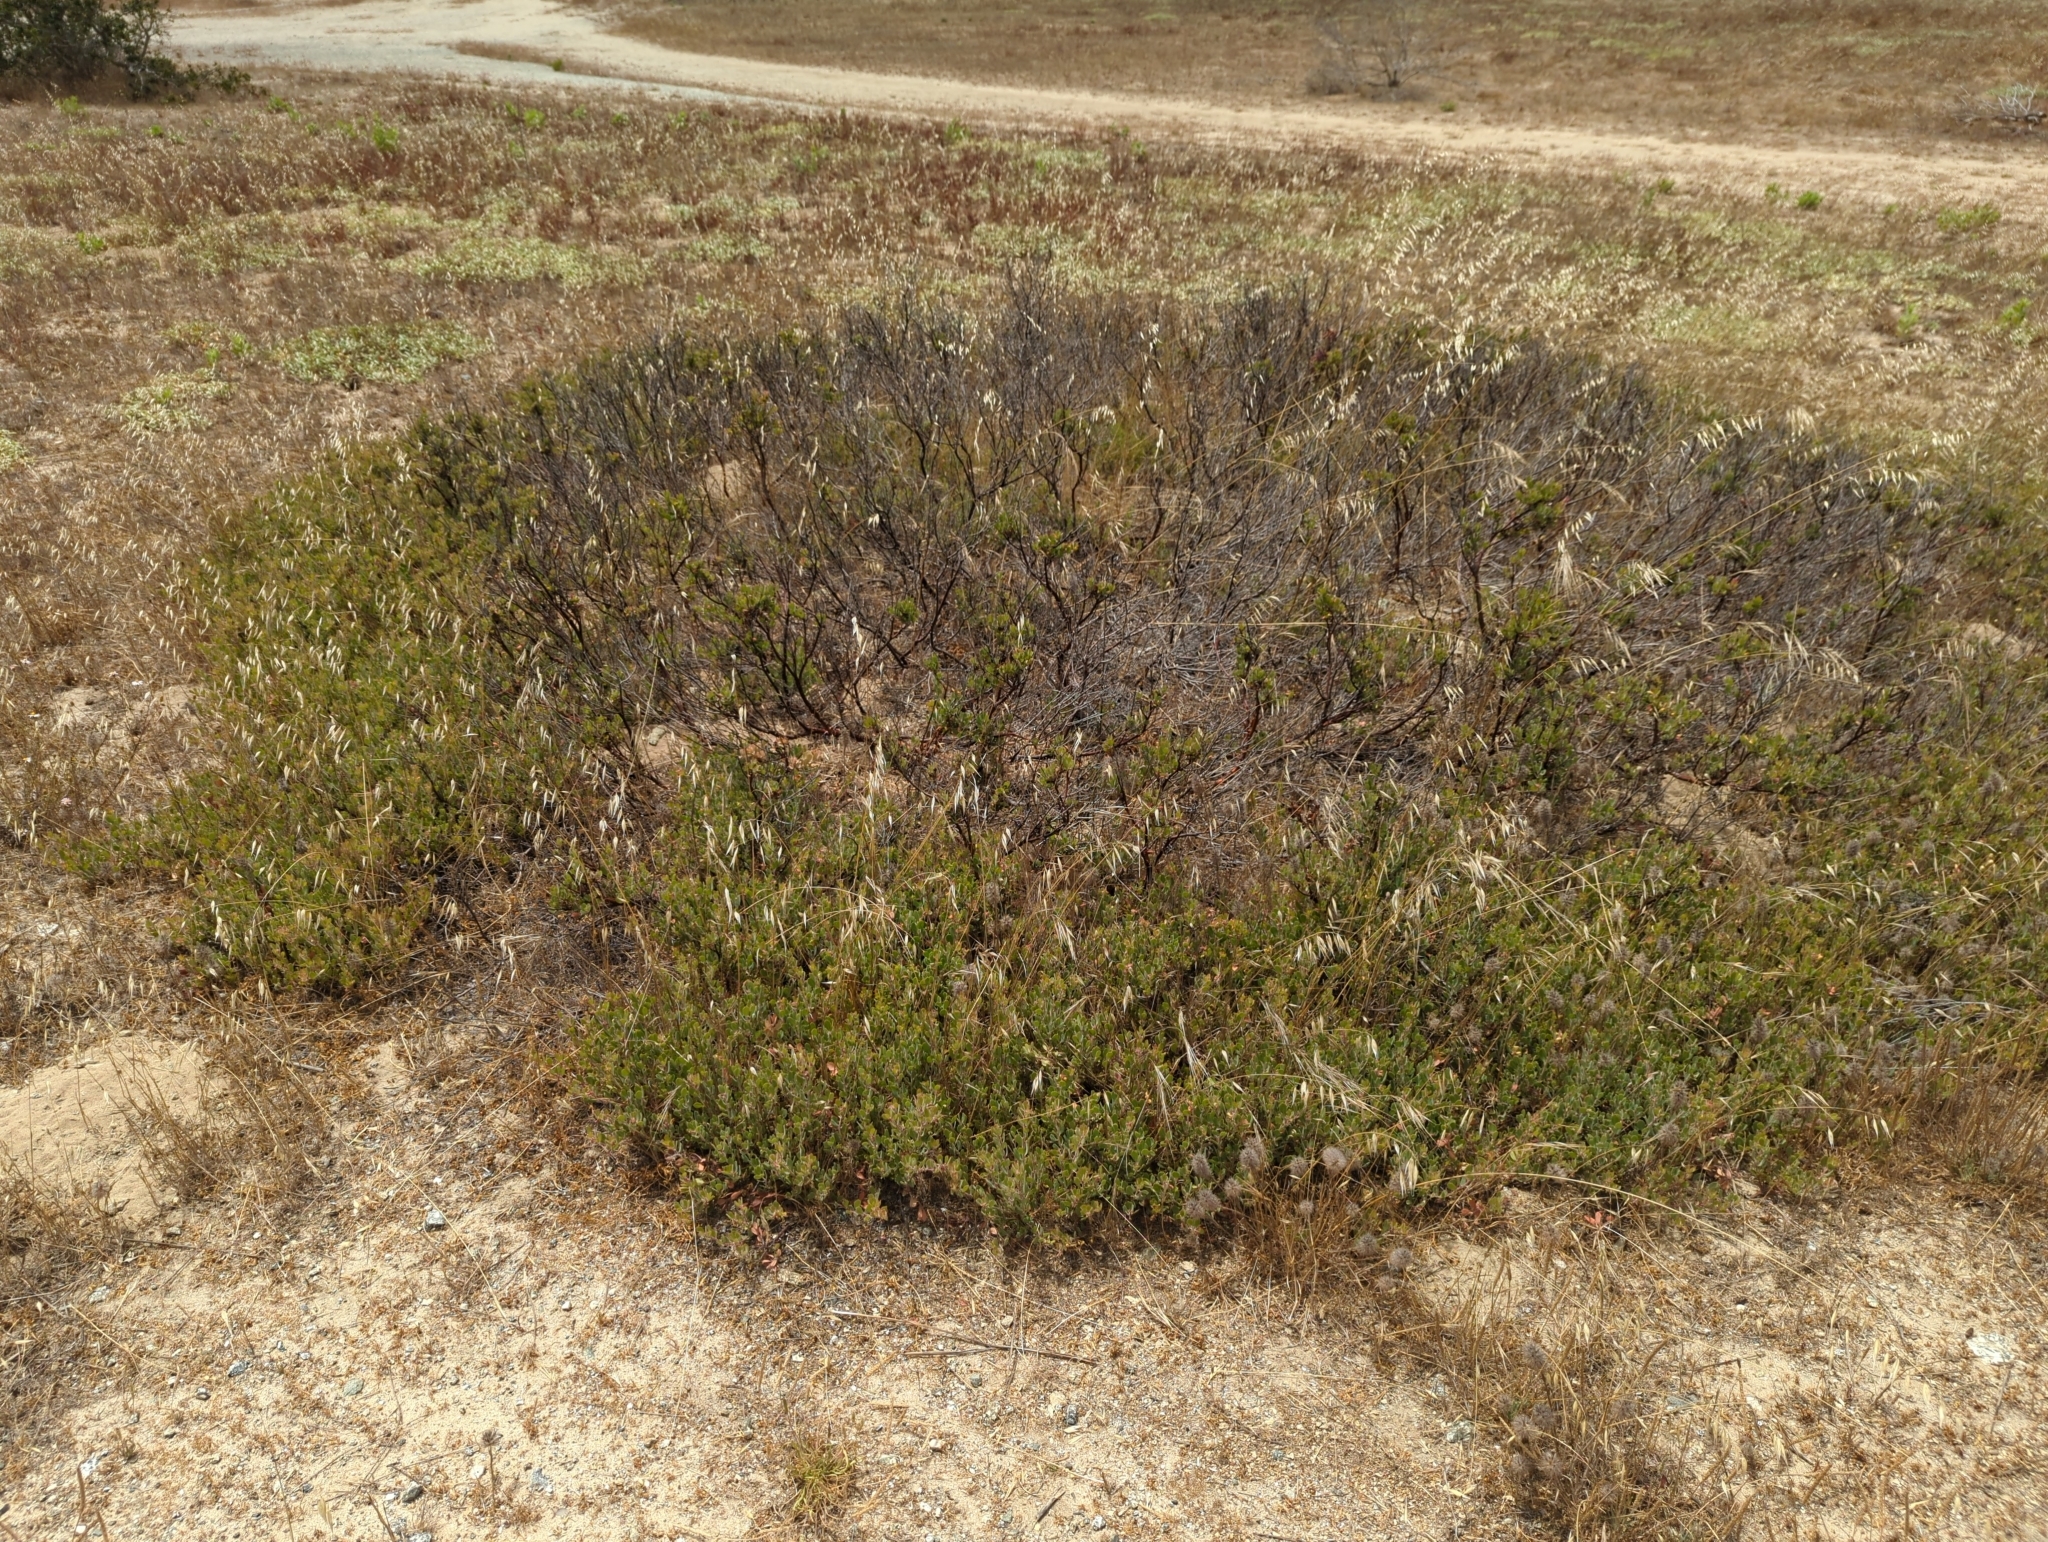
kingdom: Animalia
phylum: Arthropoda
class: Insecta
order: Hemiptera
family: Aphididae
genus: Tamalia
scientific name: Tamalia coweni
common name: Manzanita leafgall aphid
